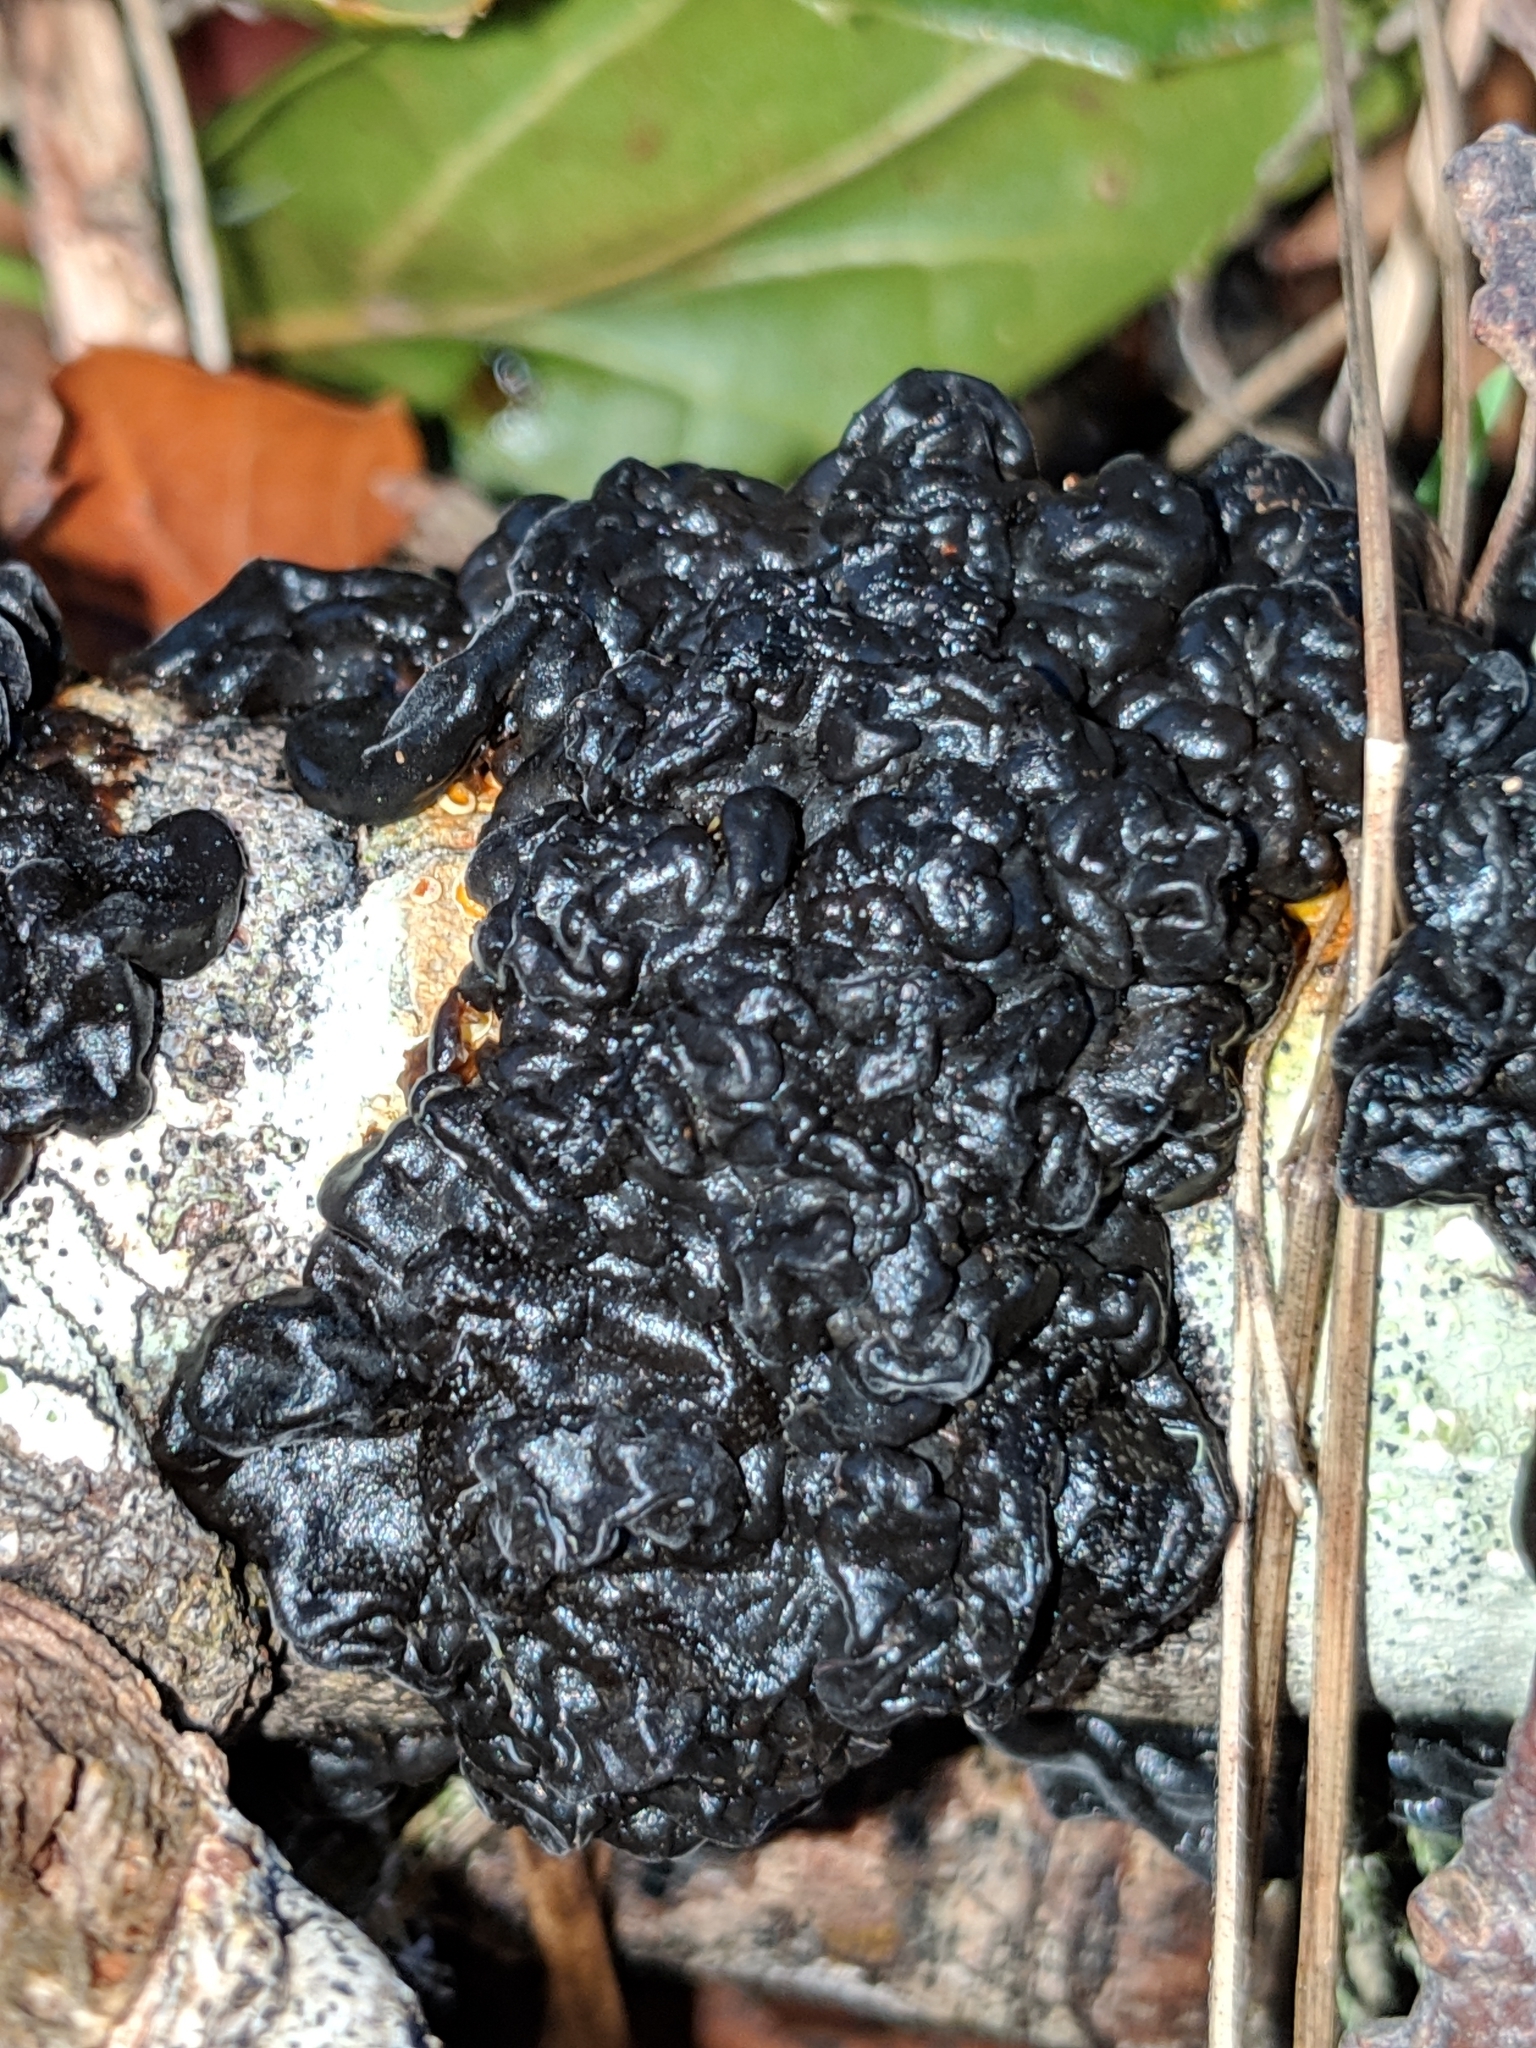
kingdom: Fungi
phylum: Basidiomycota
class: Agaricomycetes
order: Auriculariales
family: Auriculariaceae
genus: Exidia
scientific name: Exidia glandulosa
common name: Witches' butter
